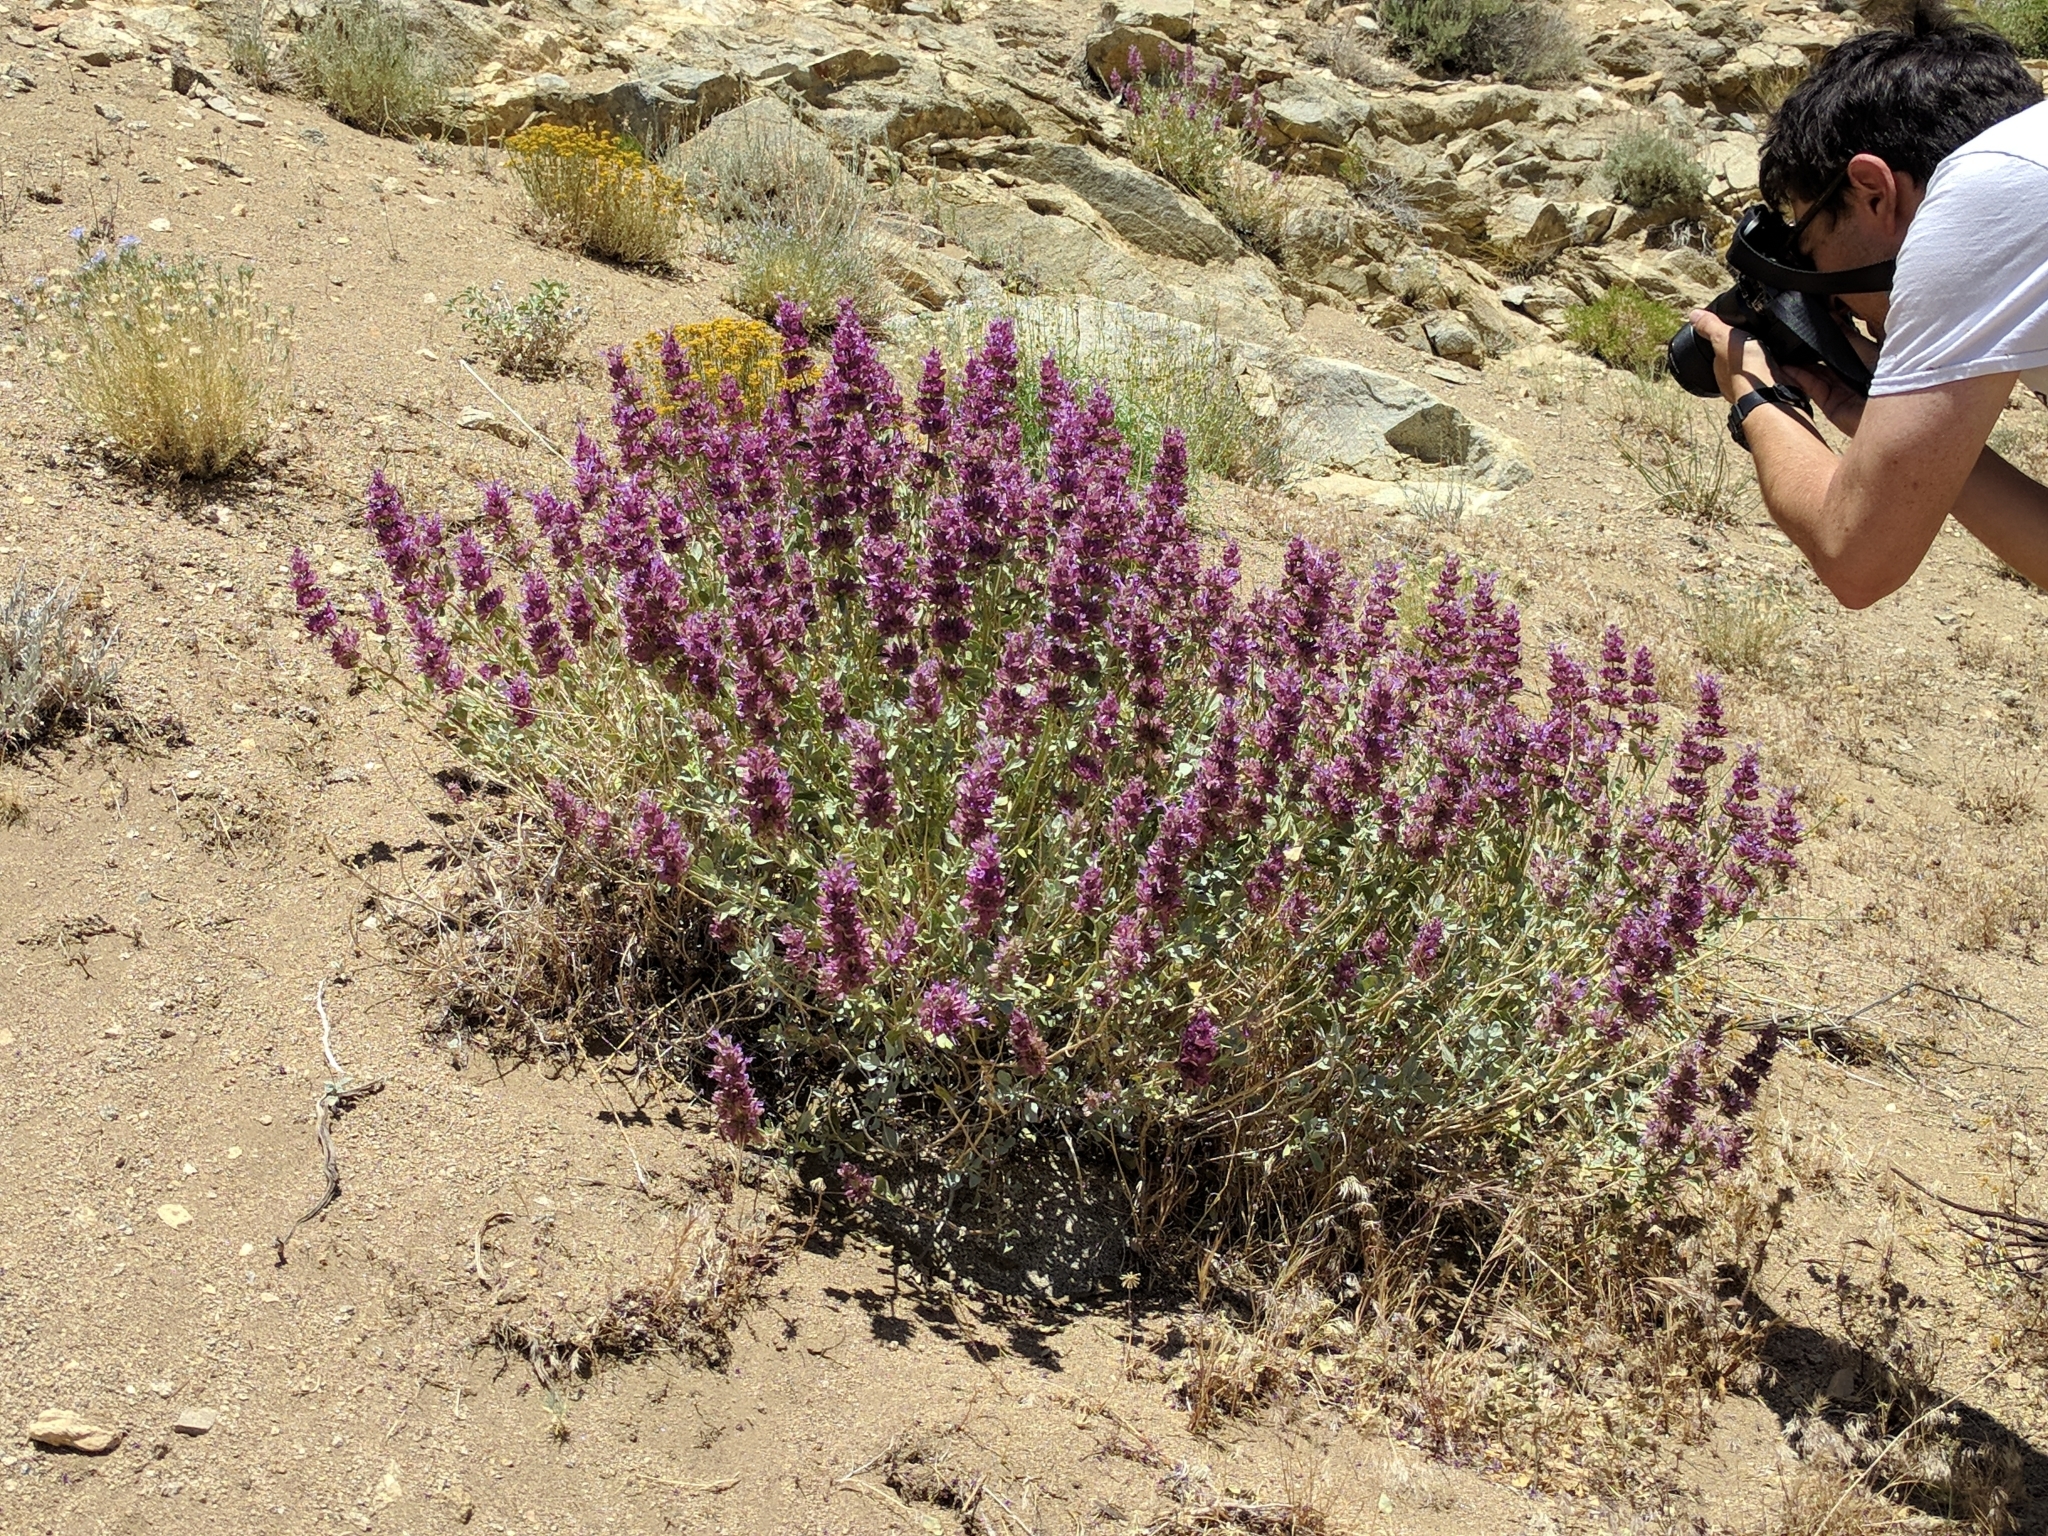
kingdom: Plantae
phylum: Tracheophyta
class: Magnoliopsida
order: Lamiales
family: Lamiaceae
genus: Salvia
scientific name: Salvia pachyphylla
